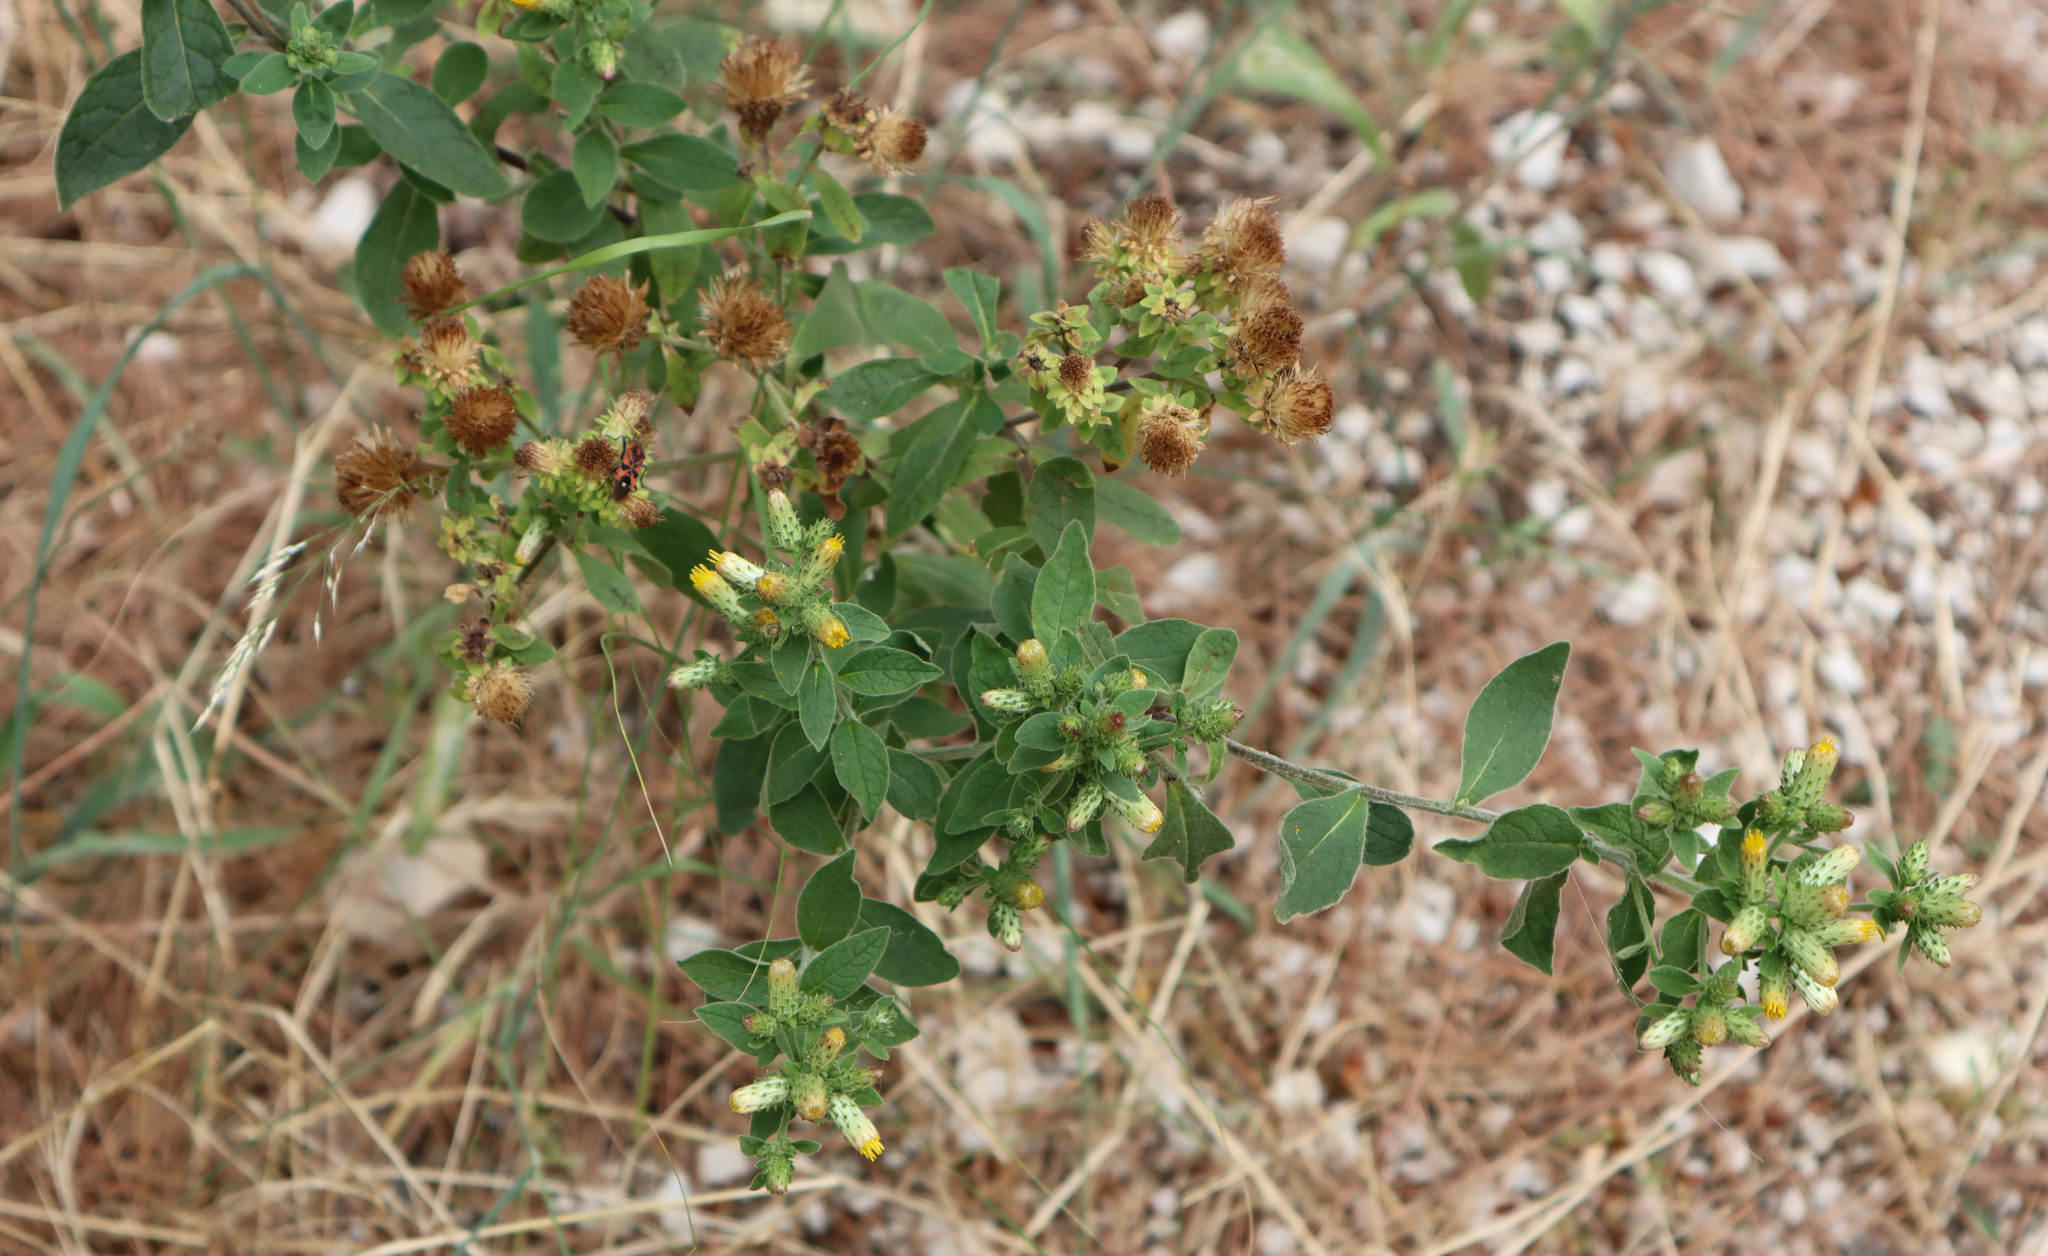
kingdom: Plantae
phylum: Tracheophyta
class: Magnoliopsida
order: Asterales
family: Asteraceae
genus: Pentanema
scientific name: Pentanema squarrosum
